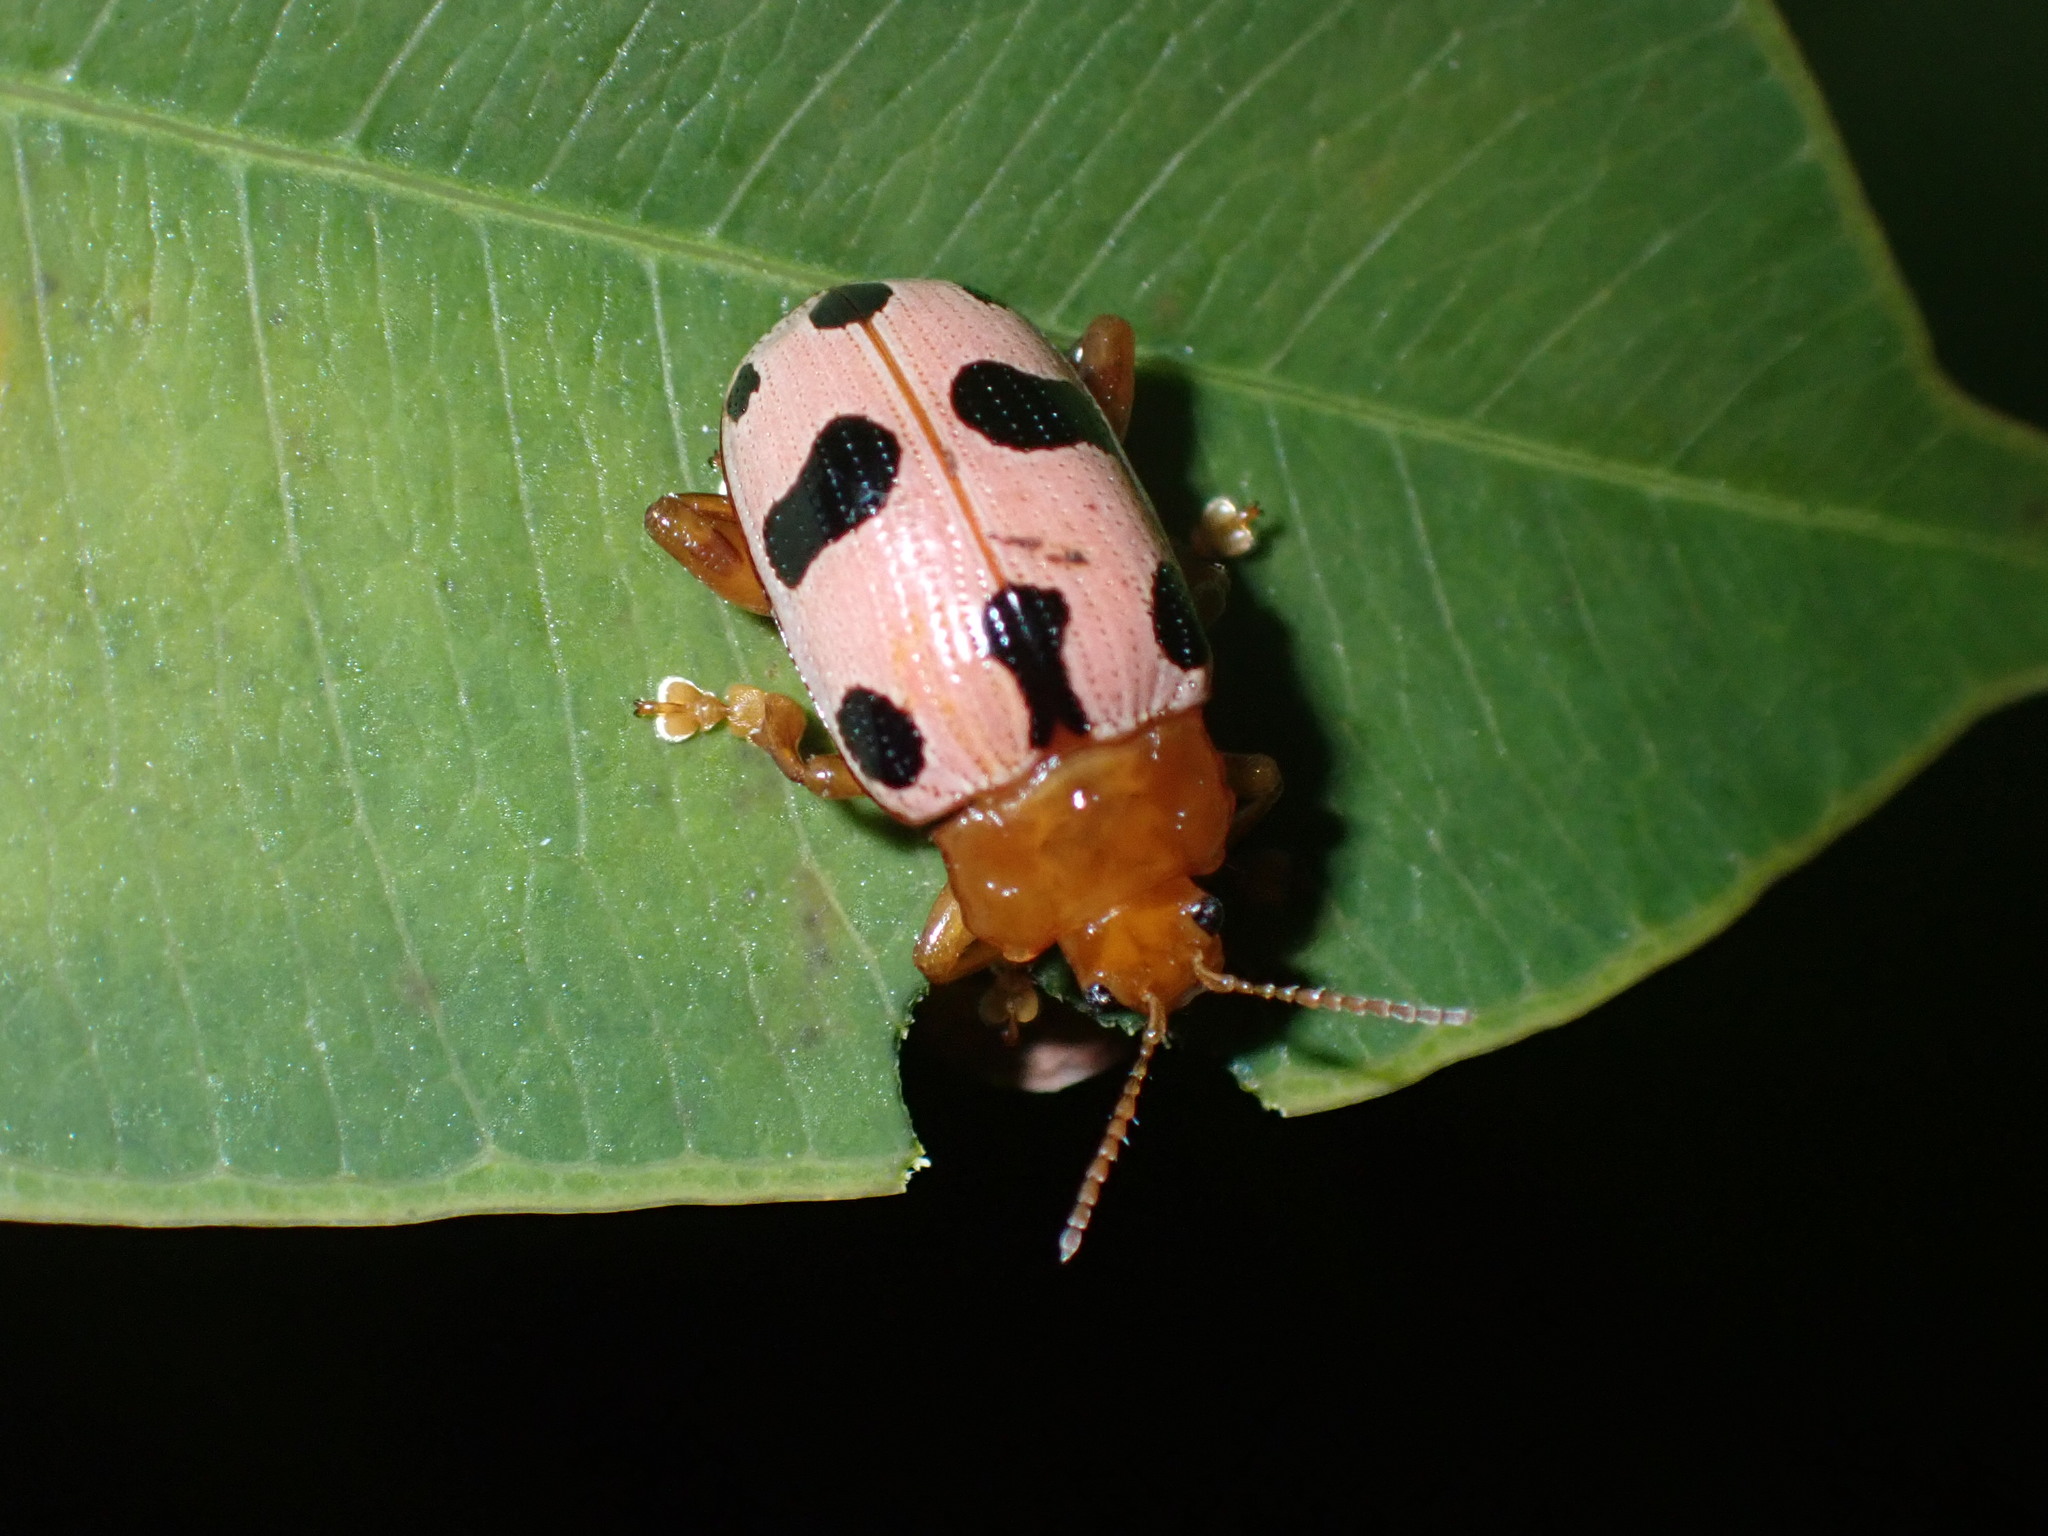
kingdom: Animalia
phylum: Arthropoda
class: Insecta
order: Coleoptera
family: Chrysomelidae
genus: Podontia
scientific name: Podontia
